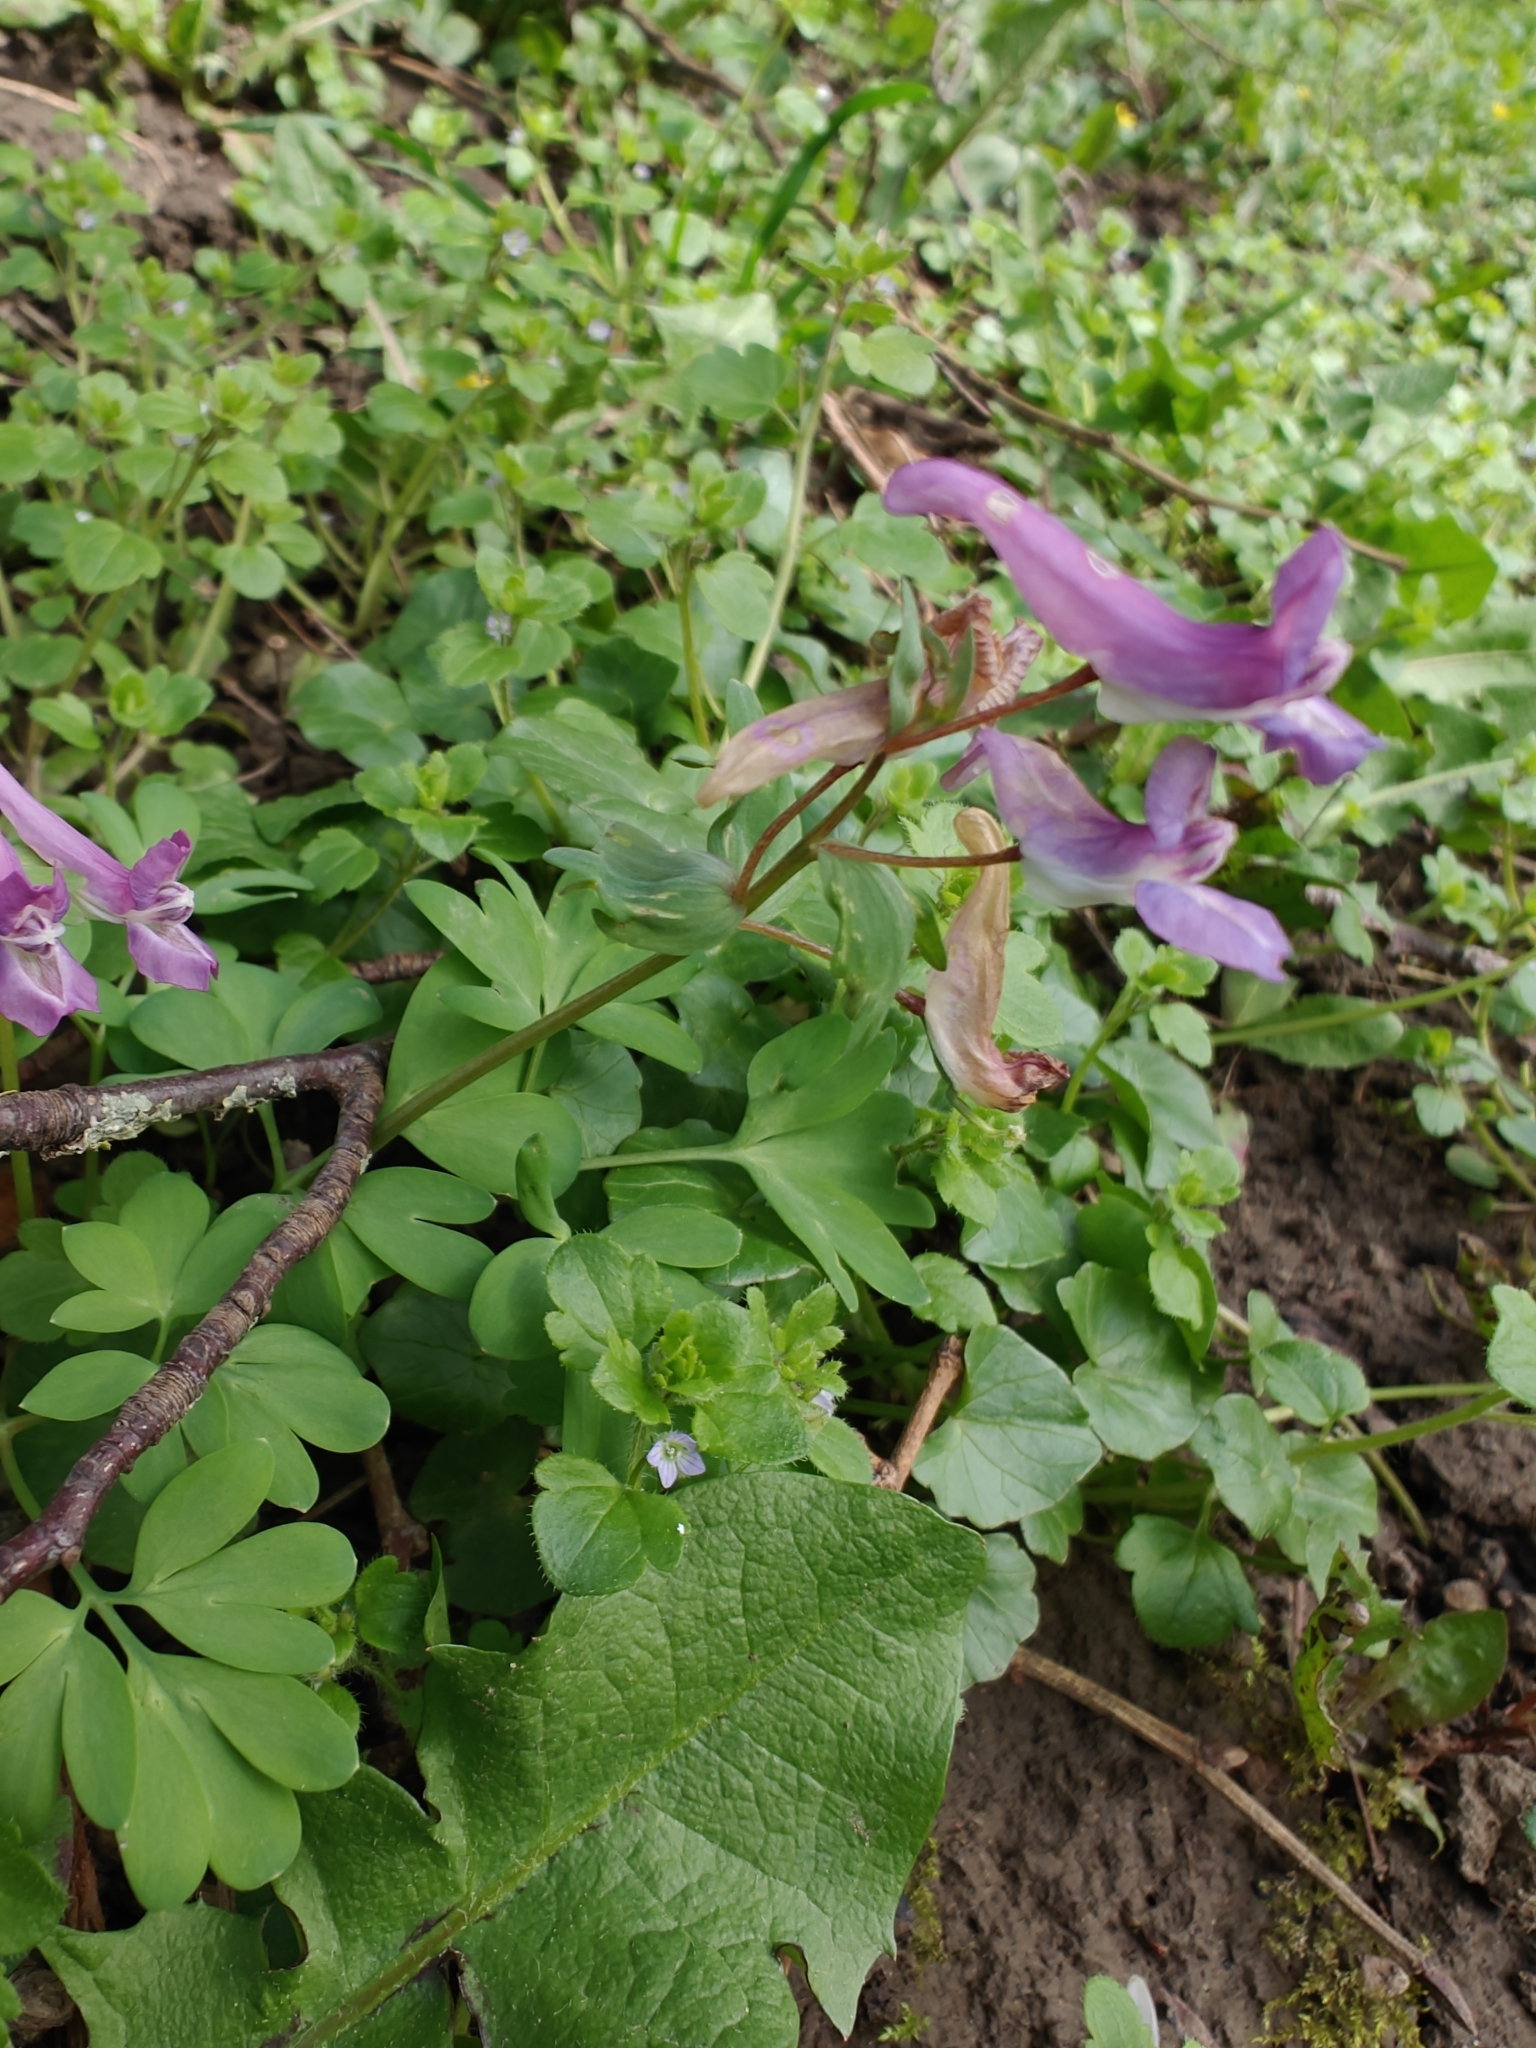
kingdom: Plantae
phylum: Tracheophyta
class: Magnoliopsida
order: Ranunculales
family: Papaveraceae
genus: Corydalis
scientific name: Corydalis solida
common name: Bird-in-a-bush
